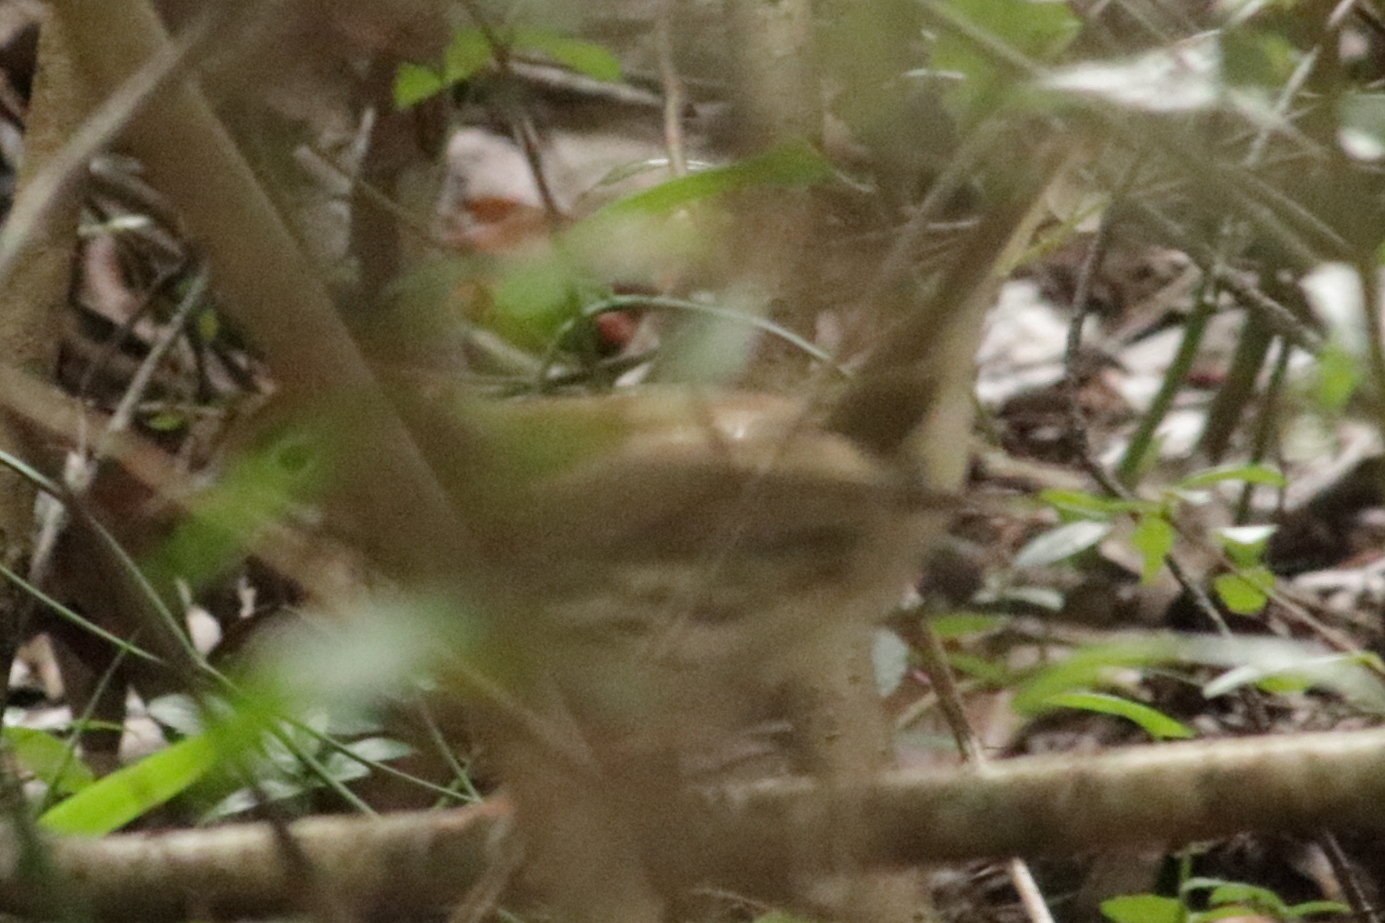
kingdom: Animalia
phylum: Chordata
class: Aves
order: Passeriformes
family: Parulidae
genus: Seiurus
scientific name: Seiurus aurocapilla
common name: Ovenbird
